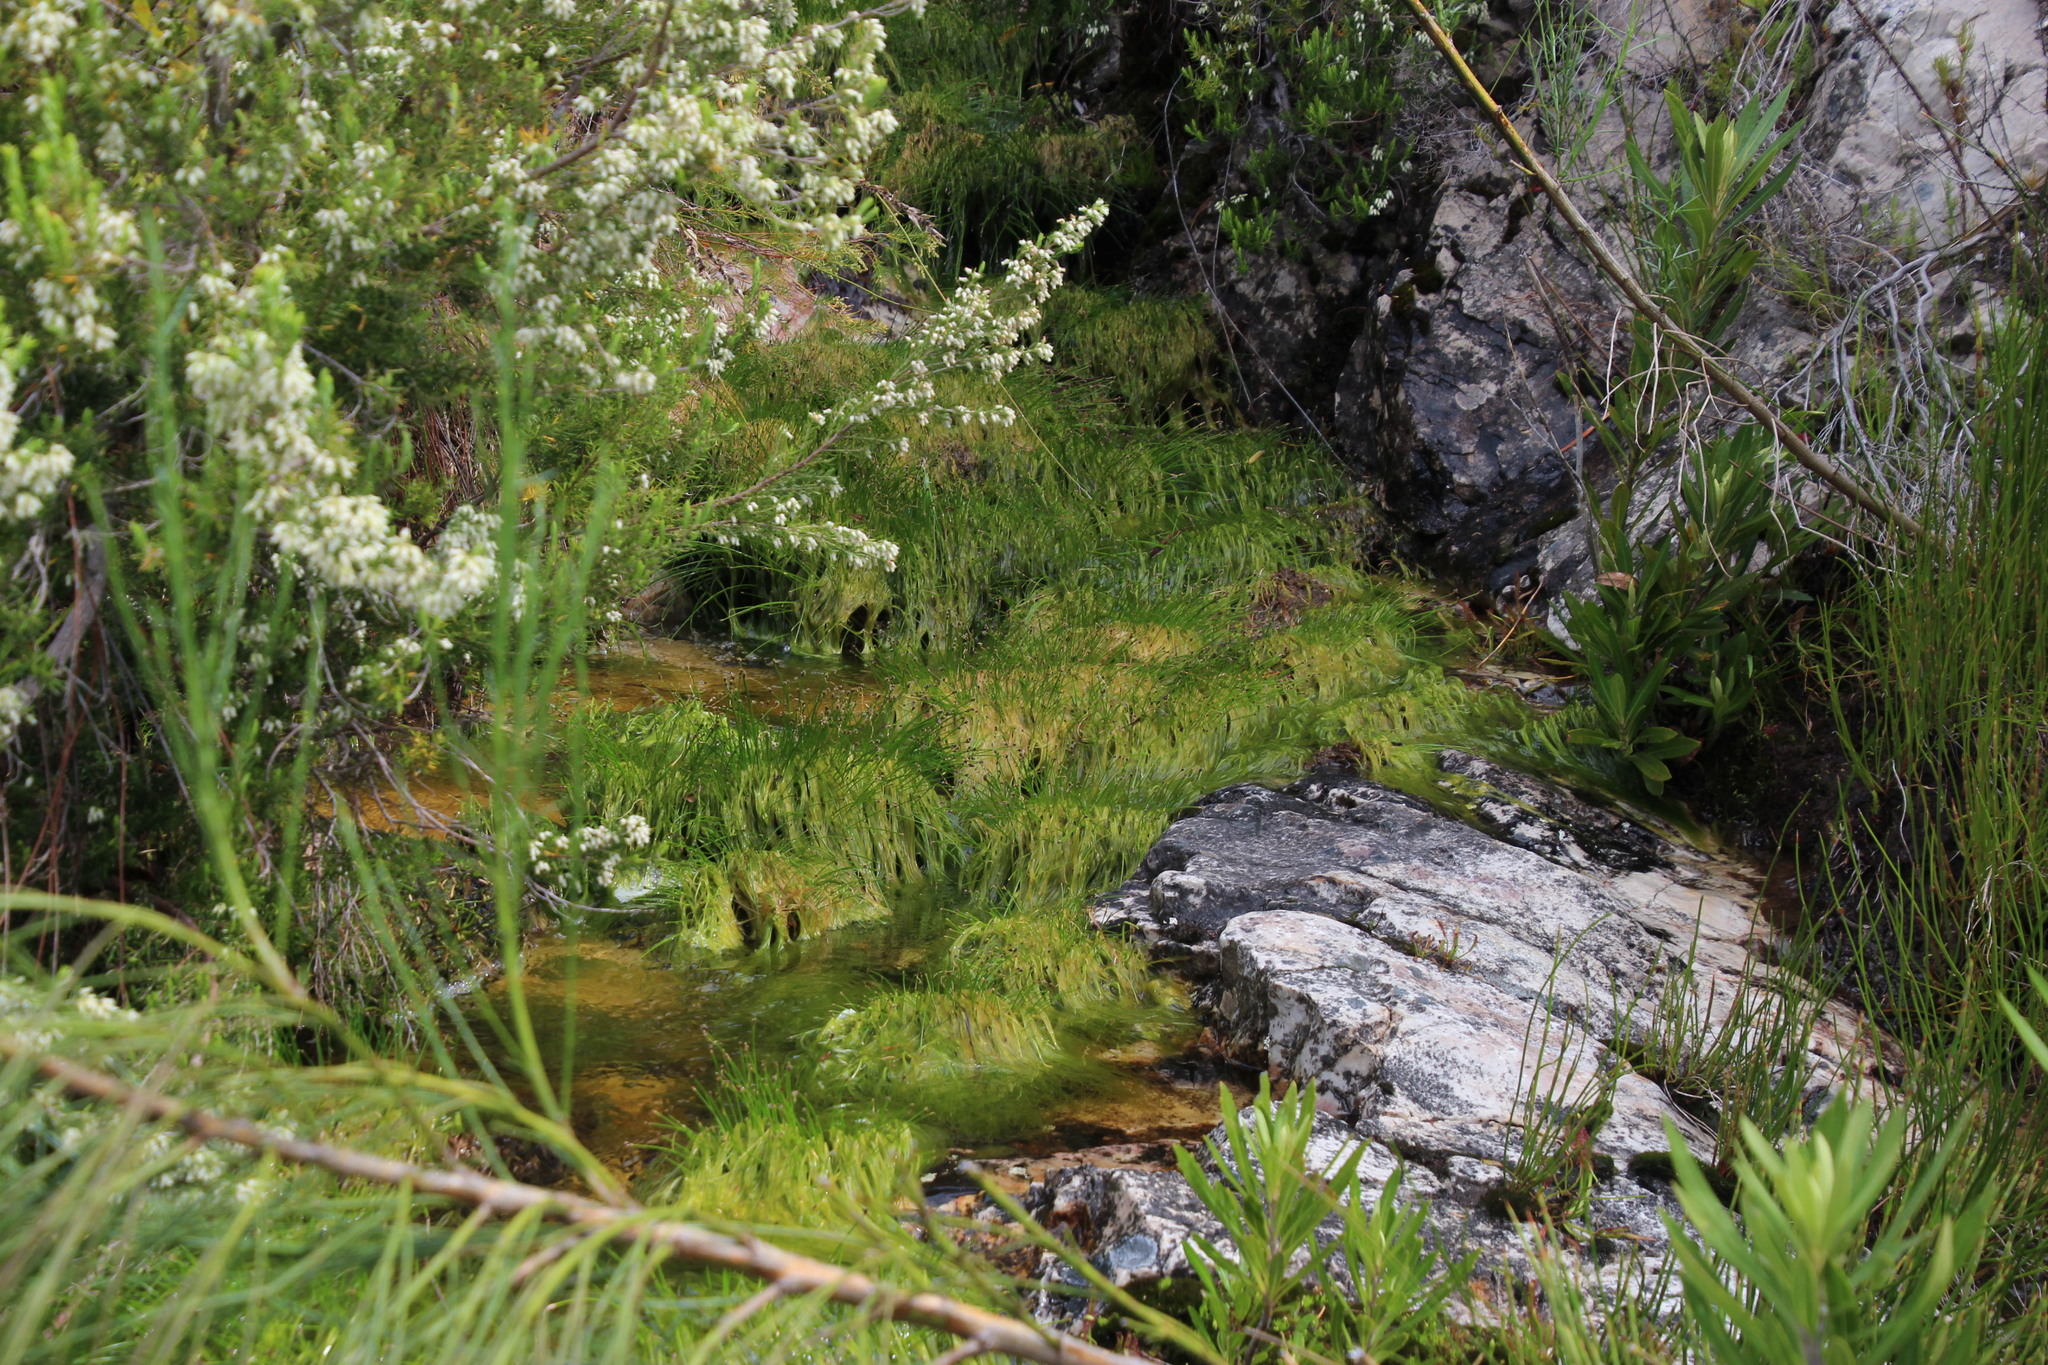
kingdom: Plantae
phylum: Tracheophyta
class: Liliopsida
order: Poales
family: Cyperaceae
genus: Isolepis
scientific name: Isolepis digitata
